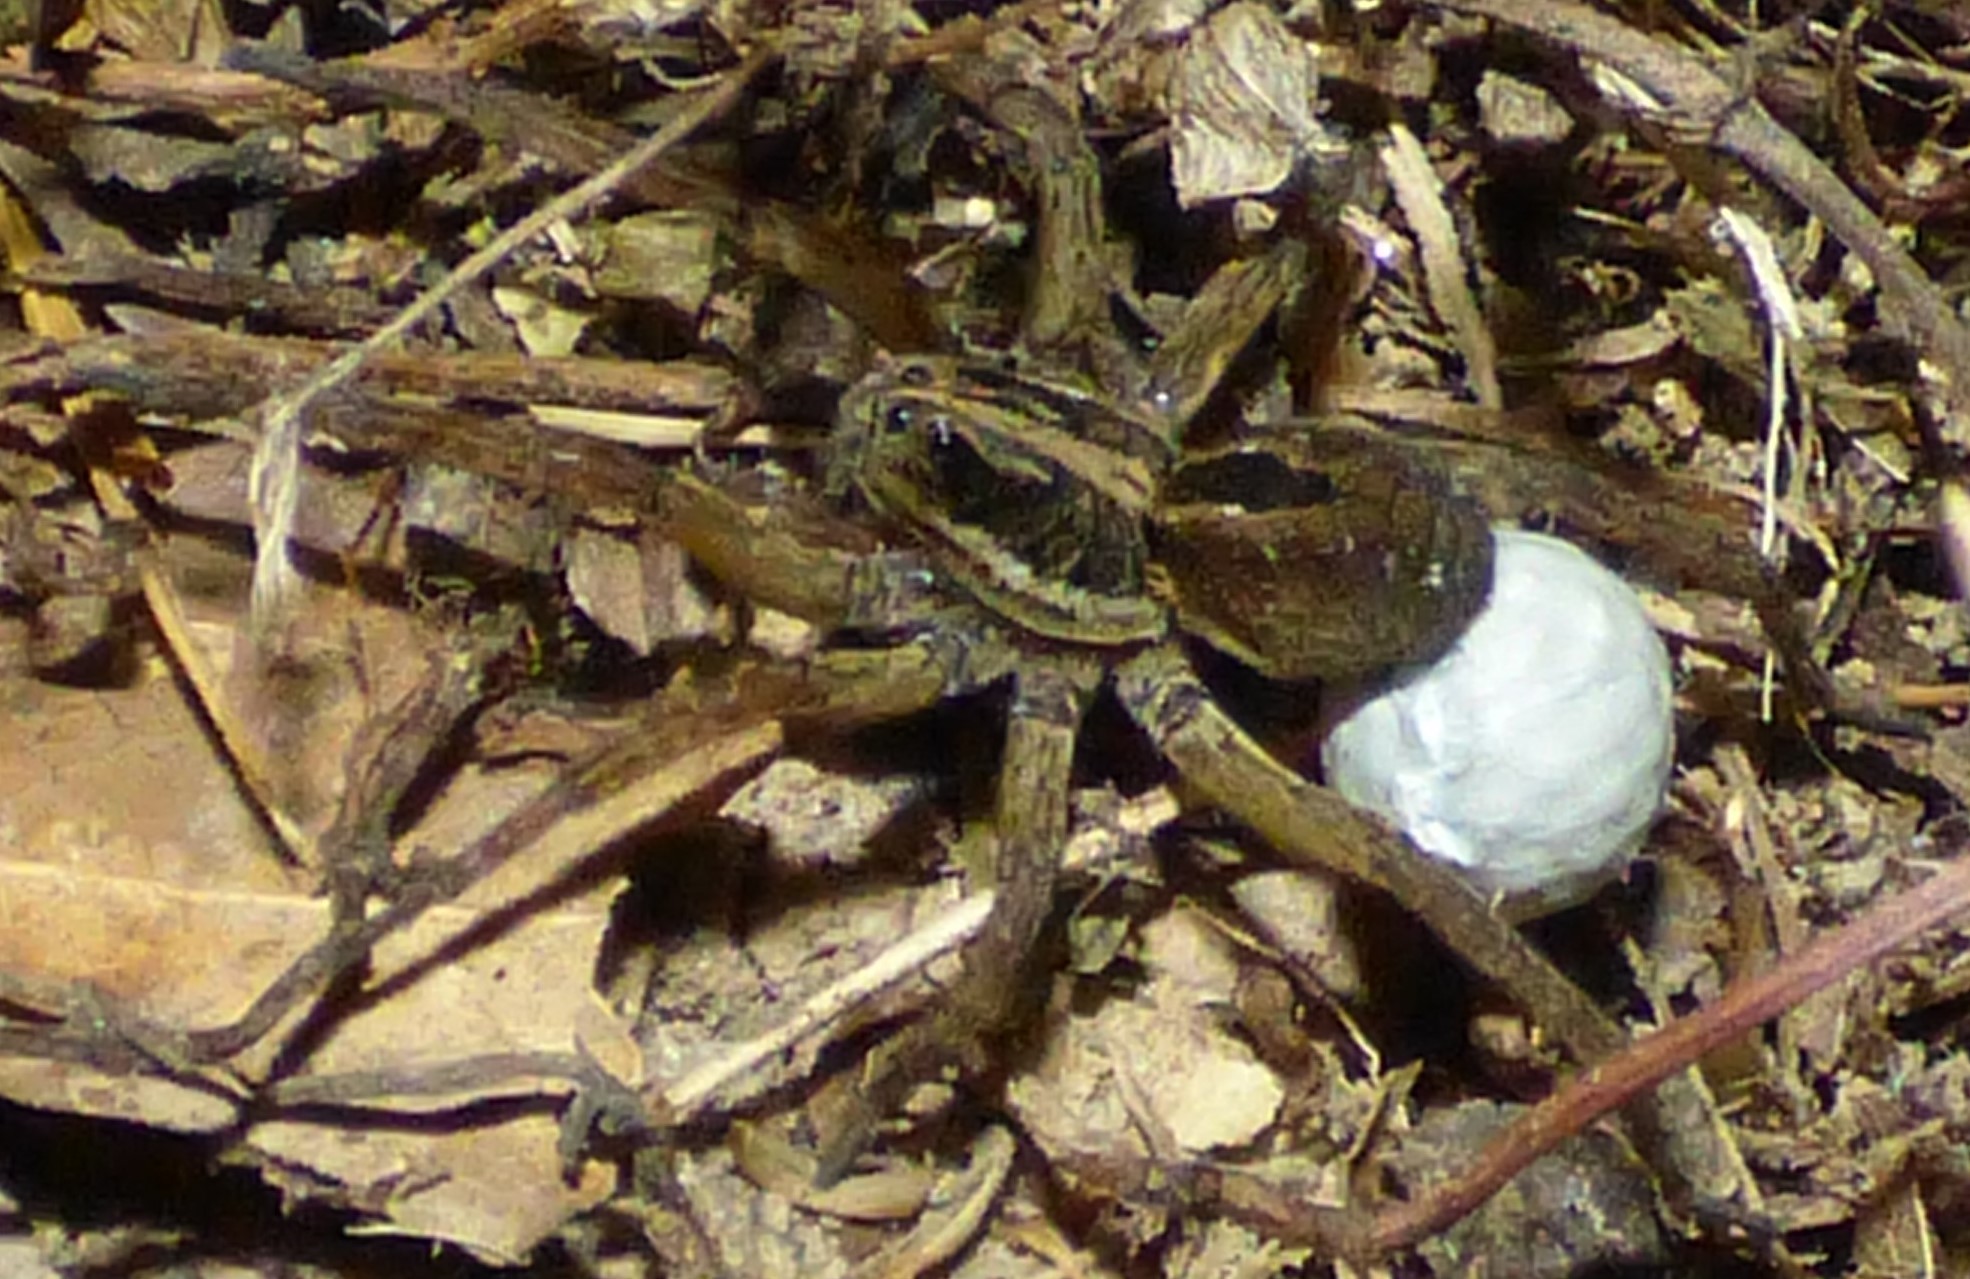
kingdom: Animalia
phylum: Arthropoda
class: Arachnida
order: Araneae
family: Lycosidae
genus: Tigrosa
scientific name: Tigrosa annexa
